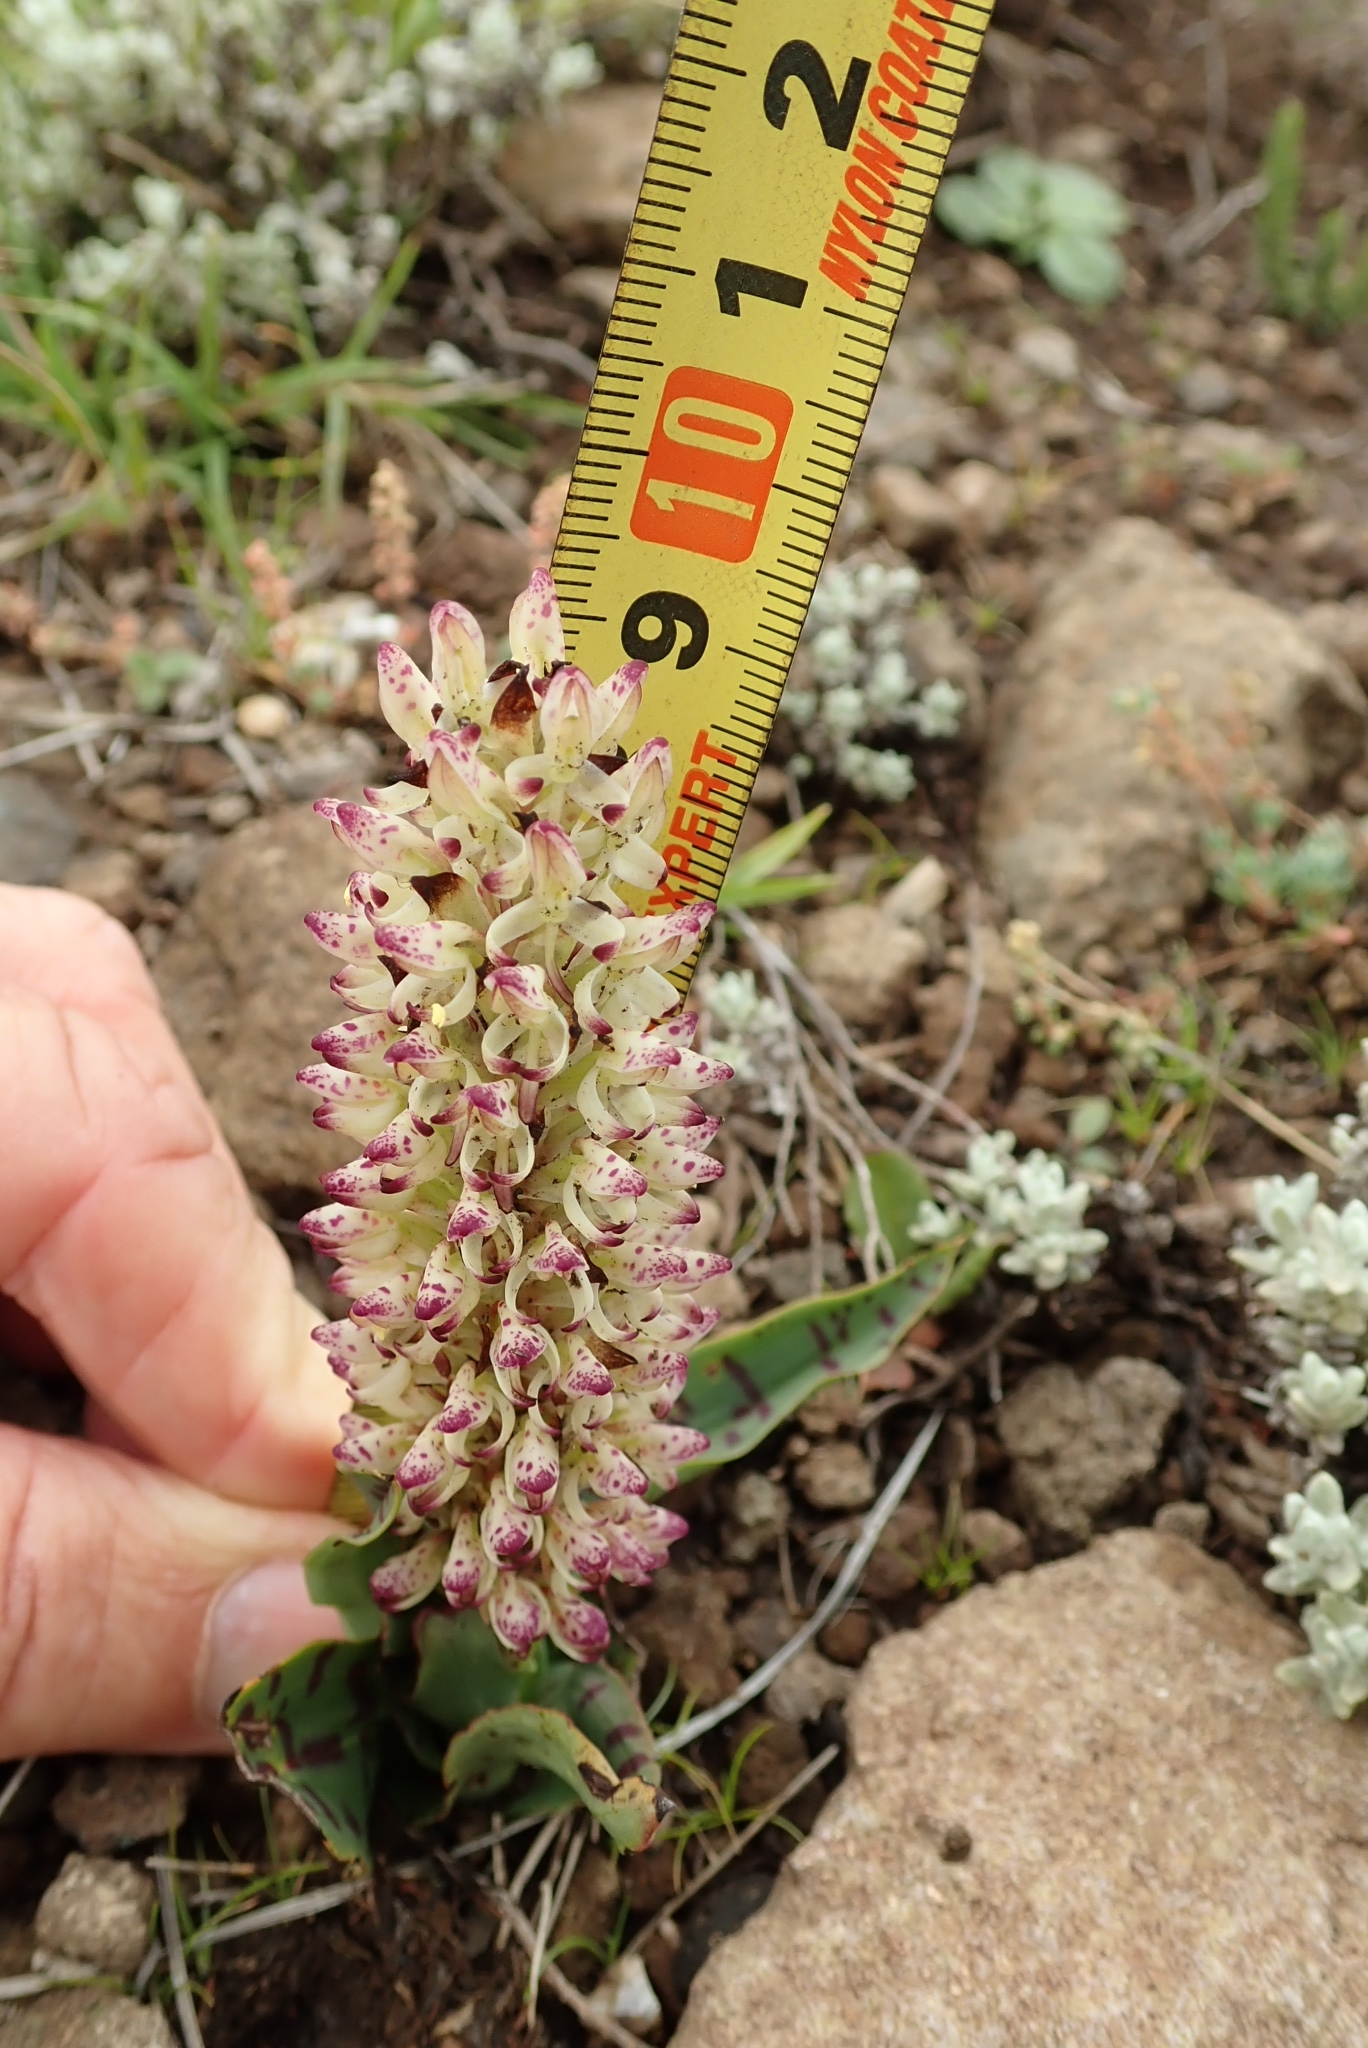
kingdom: Plantae
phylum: Tracheophyta
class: Liliopsida
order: Asparagales
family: Orchidaceae
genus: Disa
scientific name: Disa fragrans
